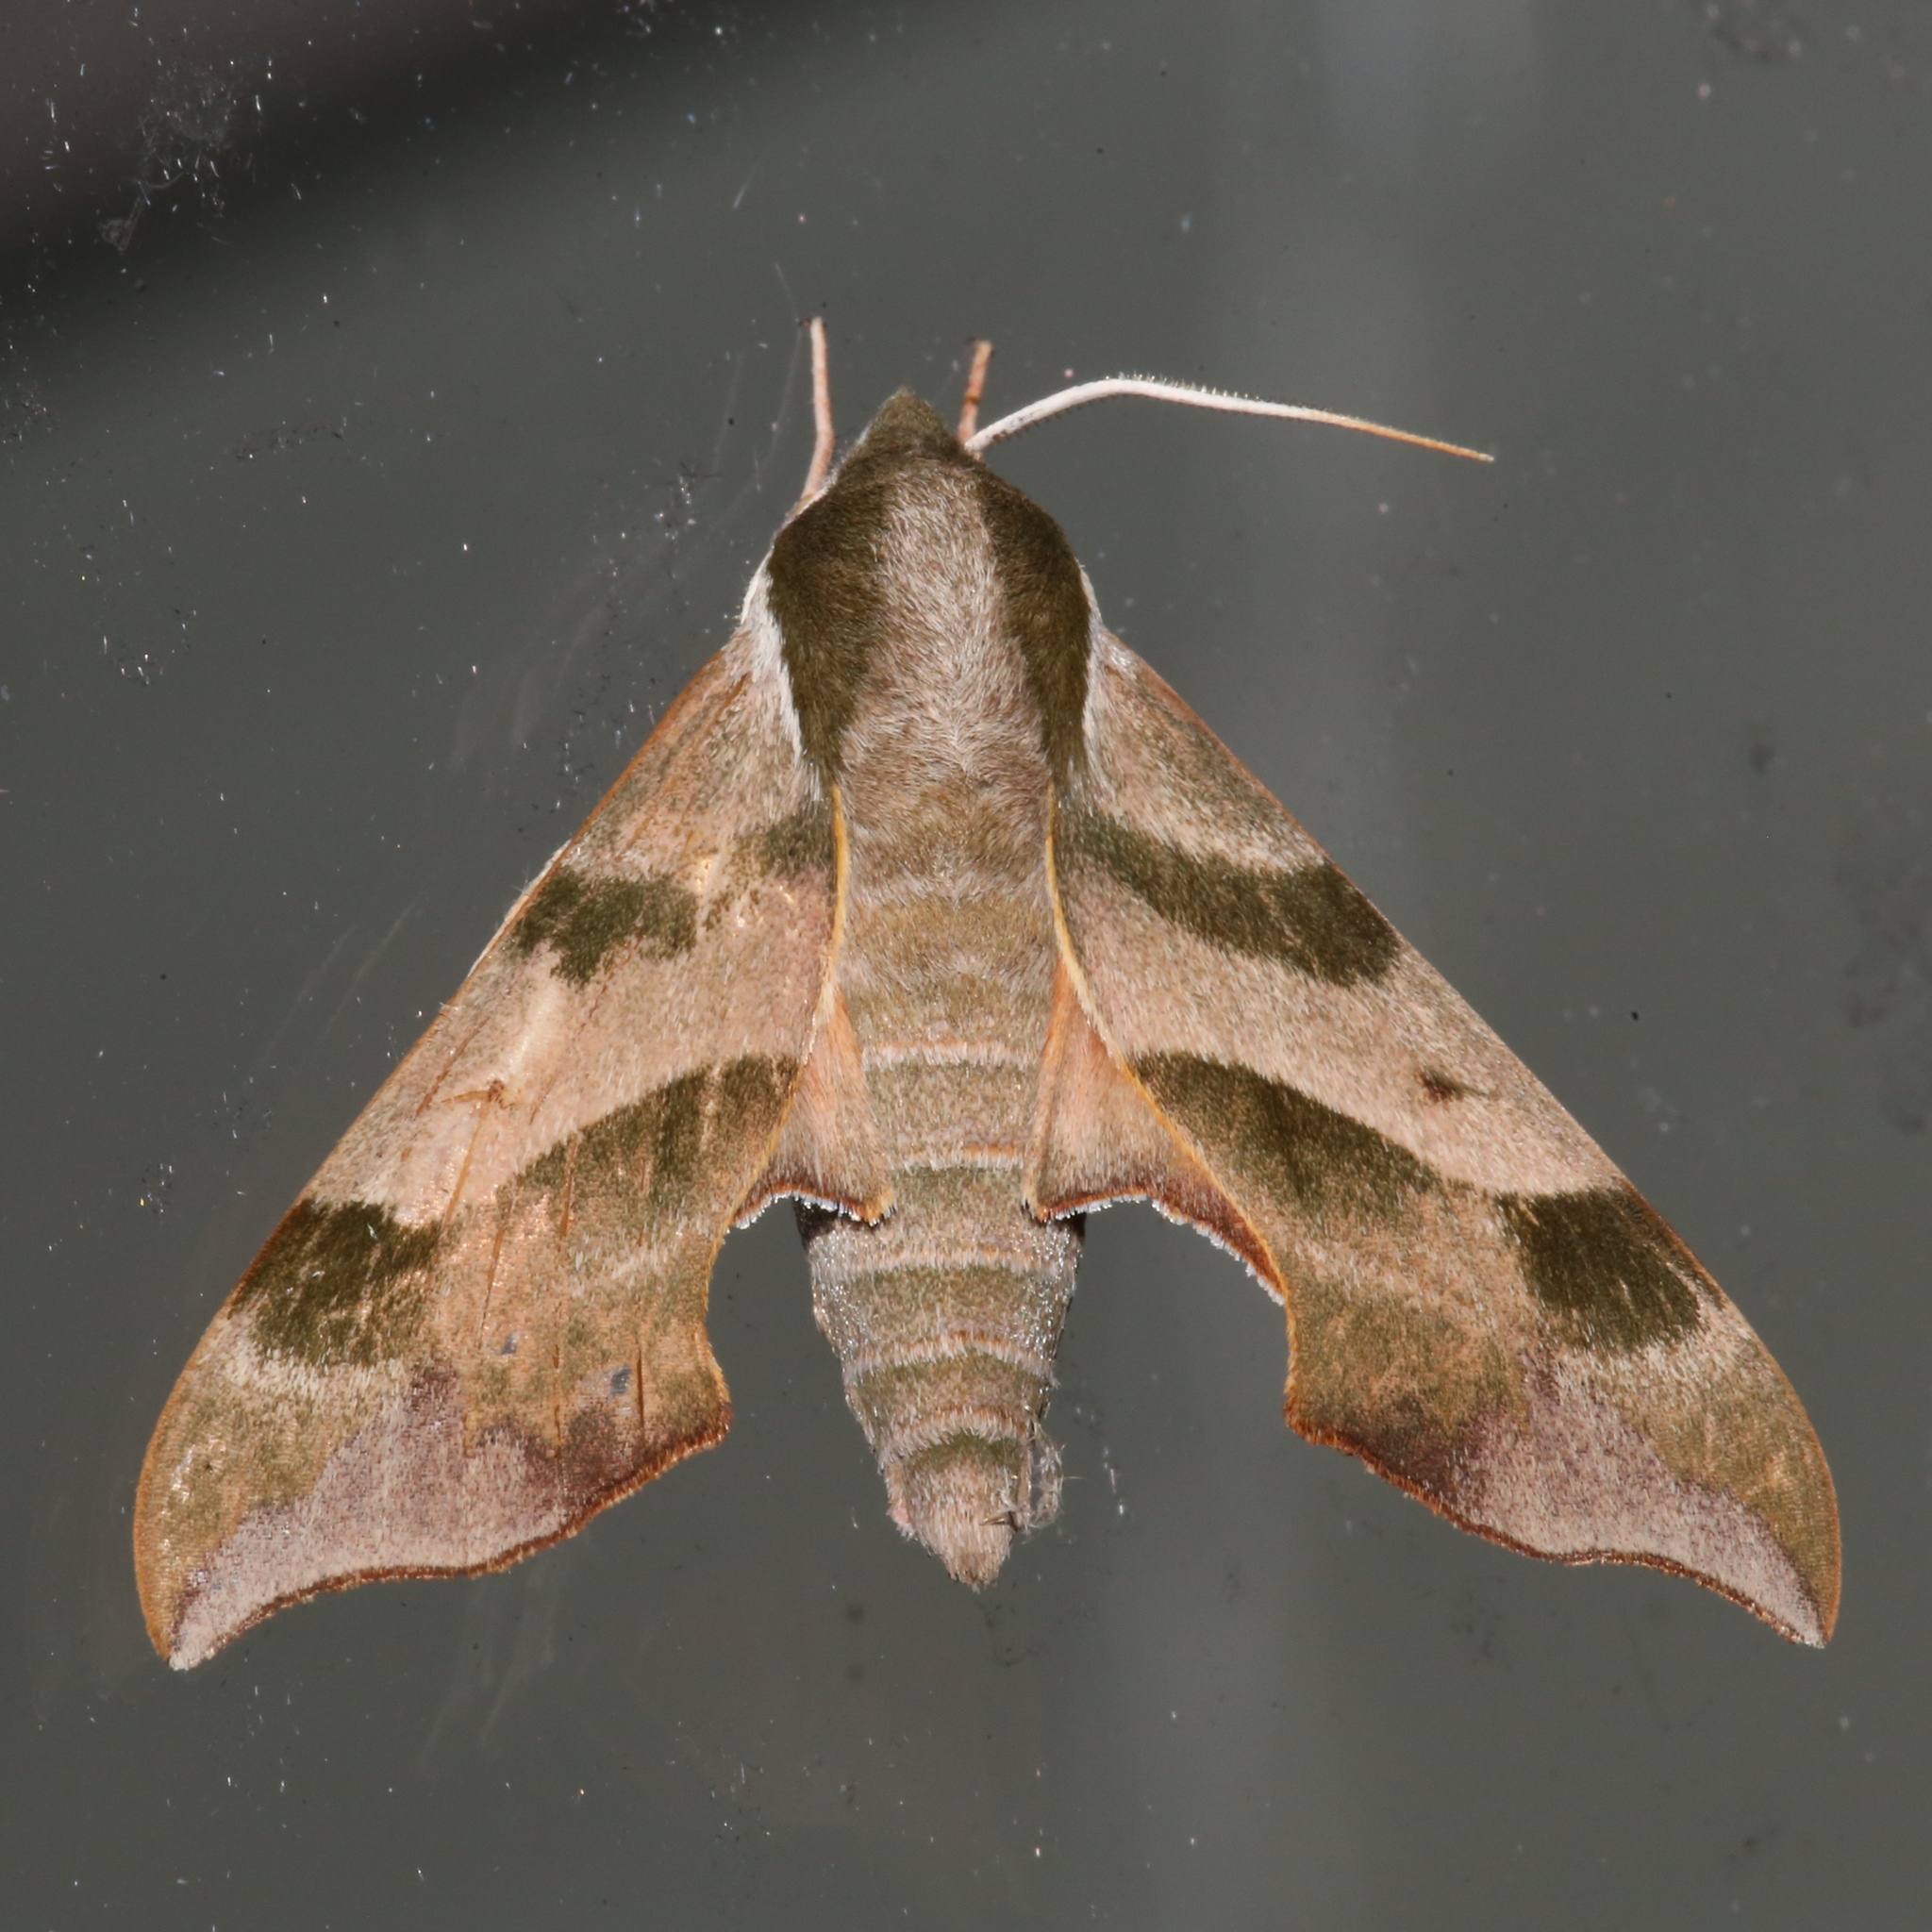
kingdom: Animalia
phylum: Arthropoda
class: Insecta
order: Lepidoptera
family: Sphingidae
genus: Darapsa
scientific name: Darapsa myron
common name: Hog sphinx
